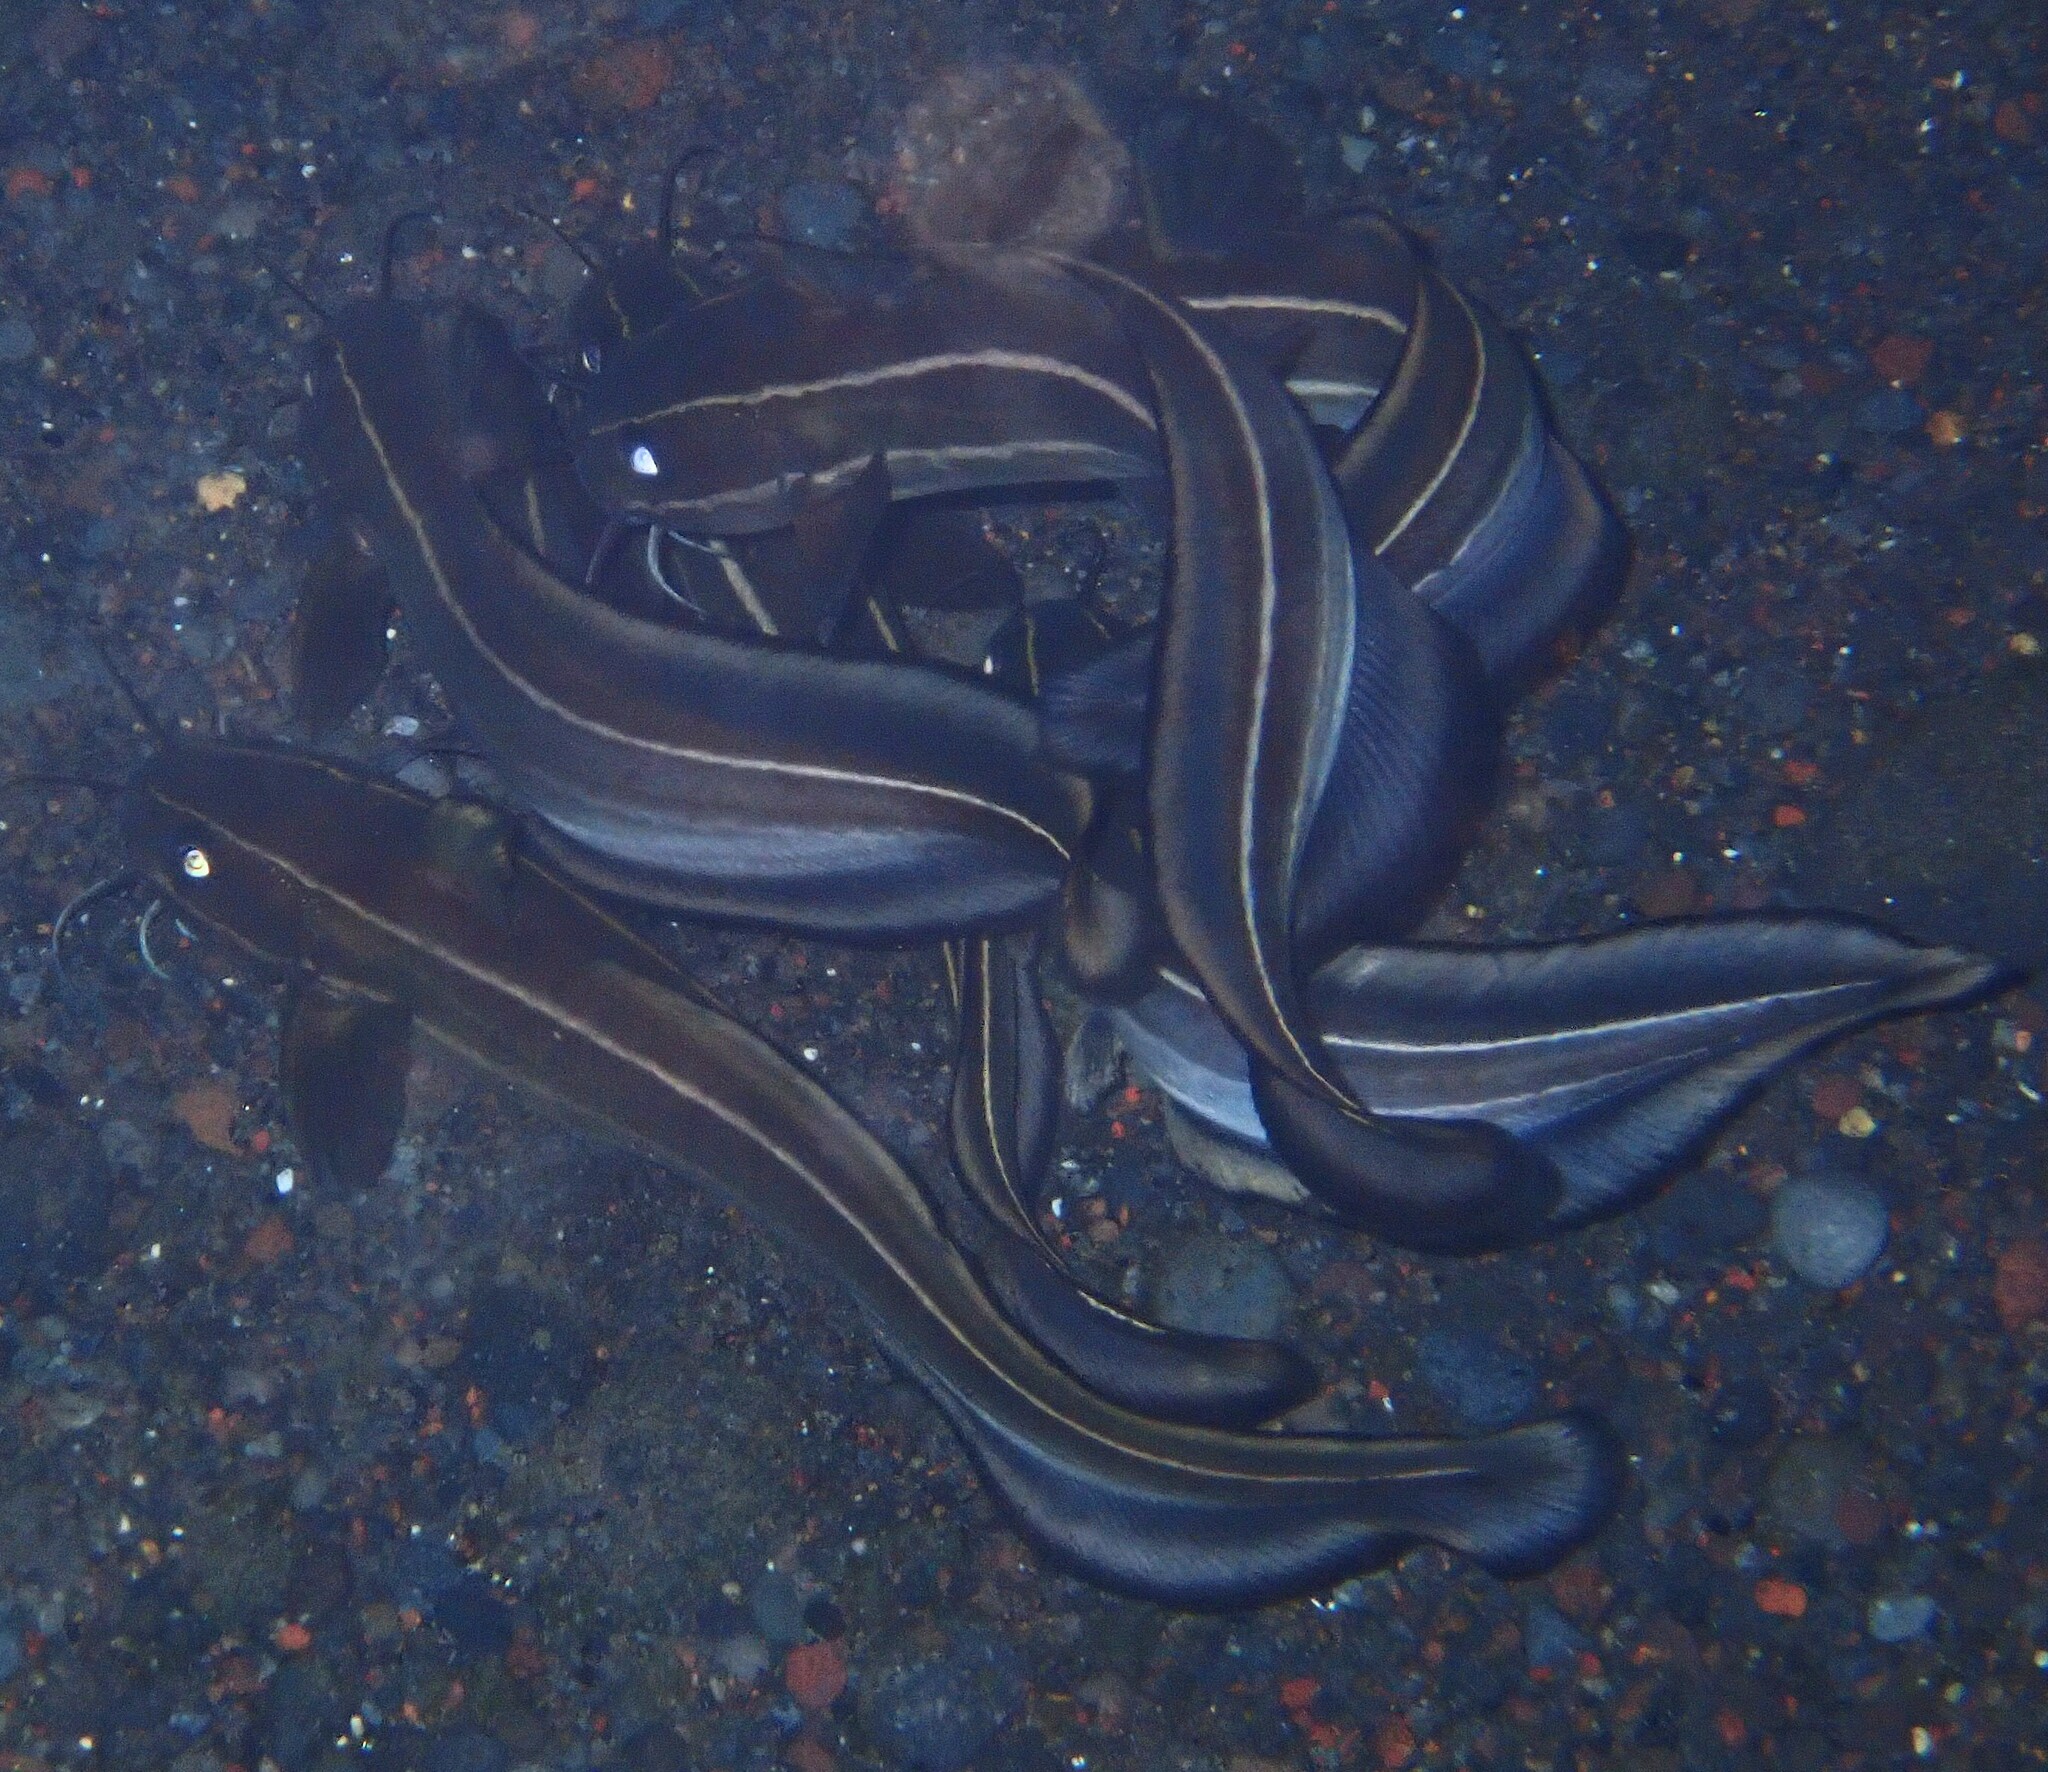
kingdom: Animalia
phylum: Chordata
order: Siluriformes
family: Plotosidae
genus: Plotosus
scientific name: Plotosus lineatus
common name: Striped eel catfish
